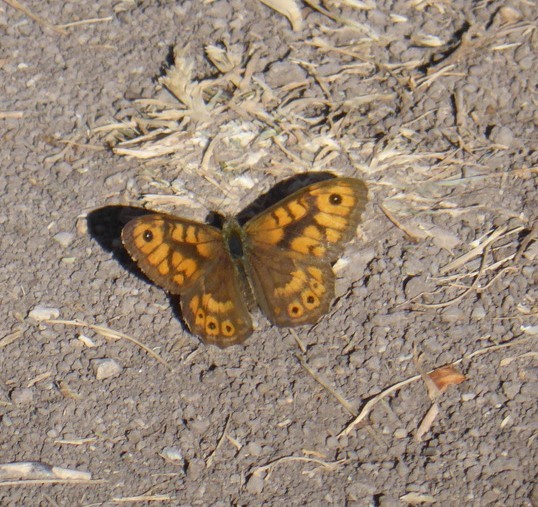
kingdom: Animalia
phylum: Arthropoda
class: Insecta
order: Lepidoptera
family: Nymphalidae
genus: Pararge
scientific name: Pararge Lasiommata megera
